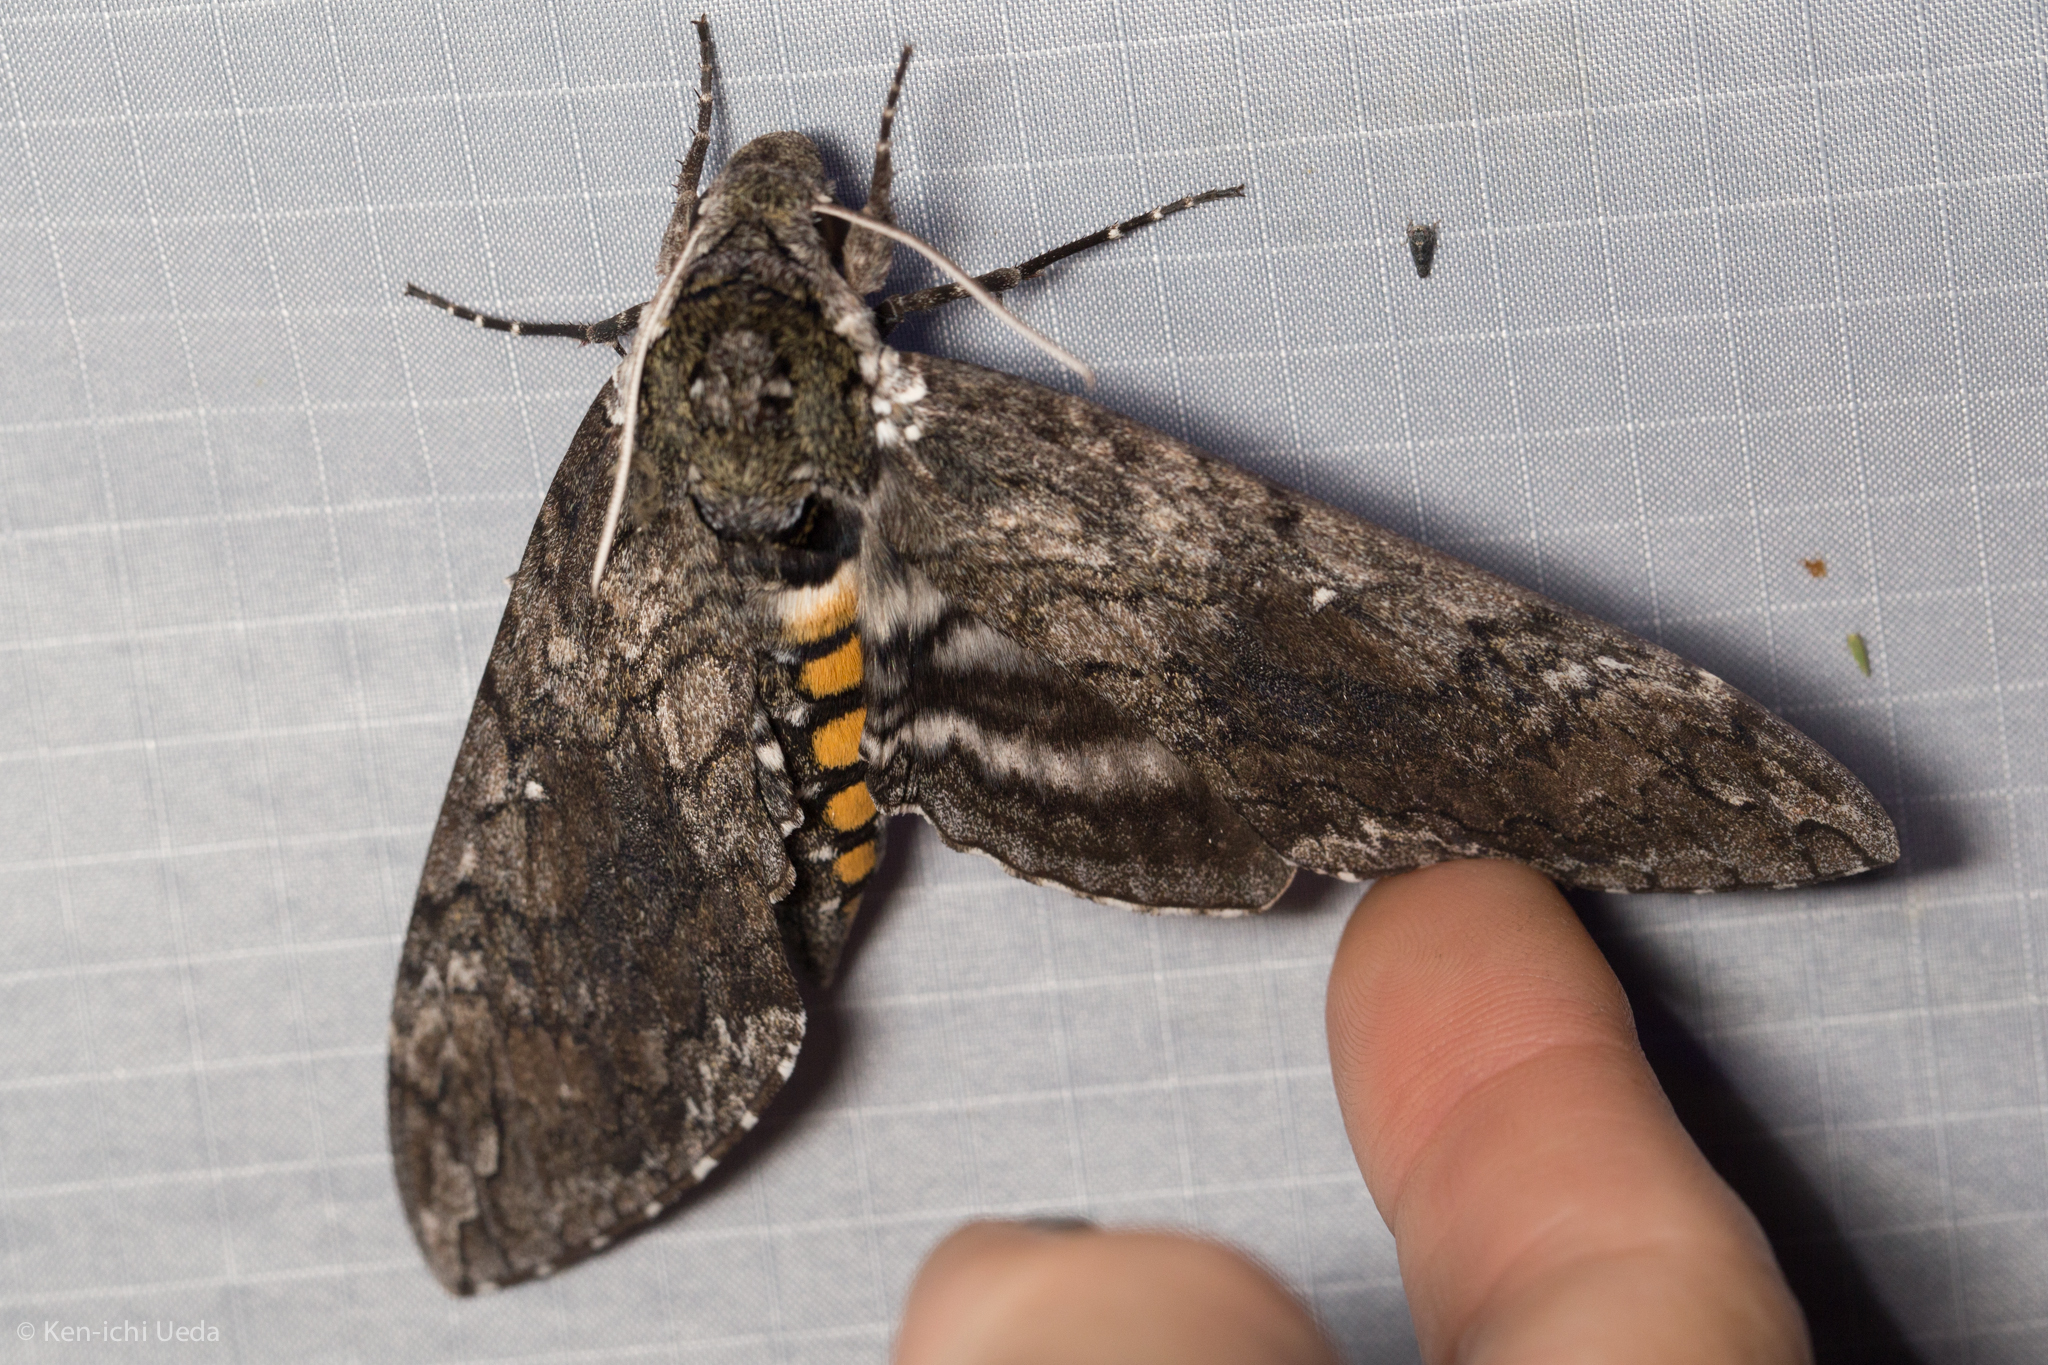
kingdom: Animalia
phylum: Arthropoda
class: Insecta
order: Lepidoptera
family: Sphingidae
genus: Manduca
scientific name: Manduca sexta
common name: Carolina sphinx
